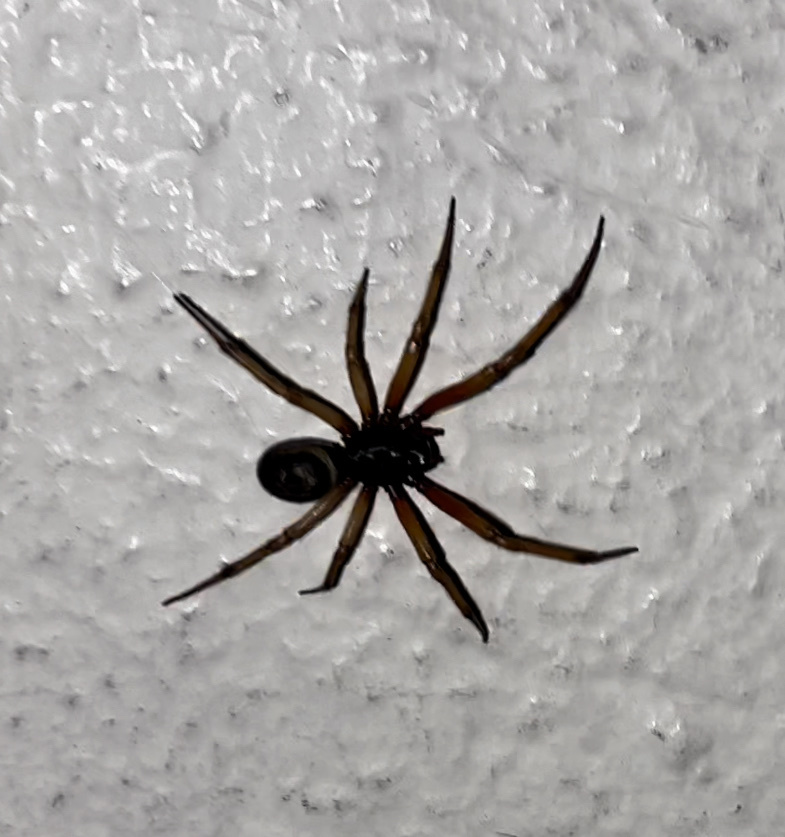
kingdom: Animalia
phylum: Arthropoda
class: Arachnida
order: Araneae
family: Theridiidae
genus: Steatoda
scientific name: Steatoda nobilis
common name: Cobweb weaver
